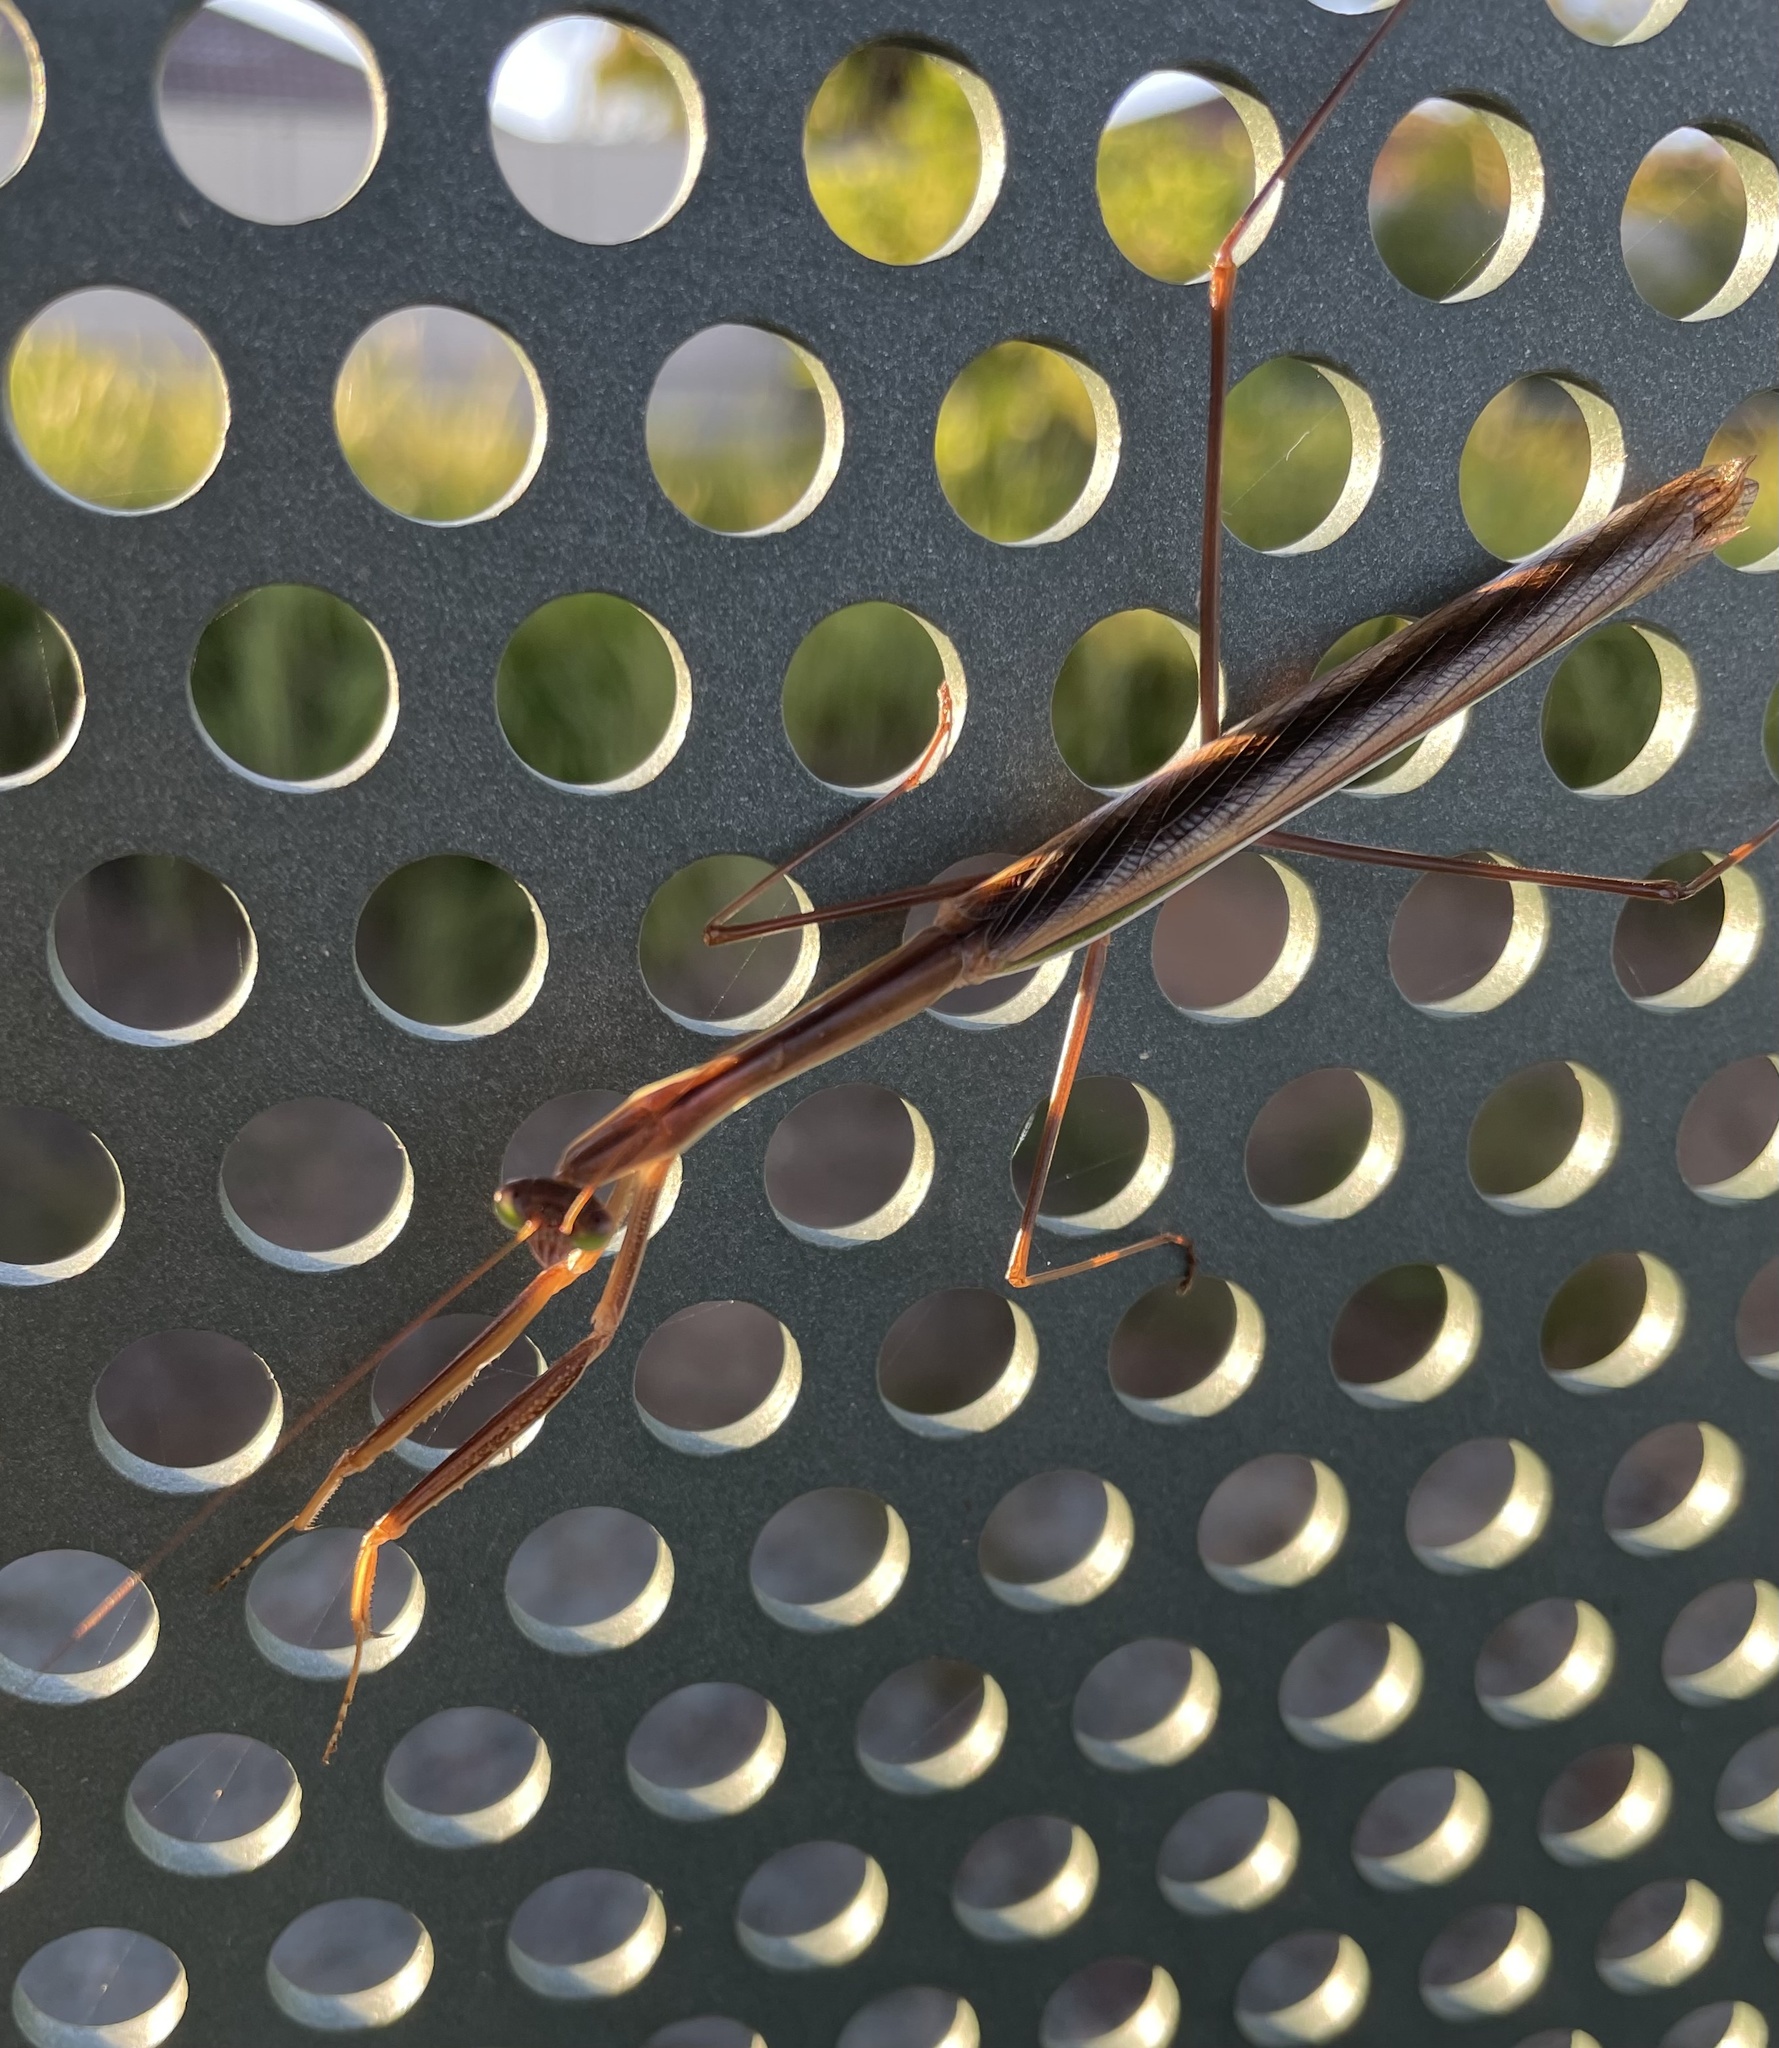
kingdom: Animalia
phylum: Arthropoda
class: Insecta
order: Mantodea
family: Mantidae
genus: Tenodera
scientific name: Tenodera australasiae
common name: Purple-winged mantis
